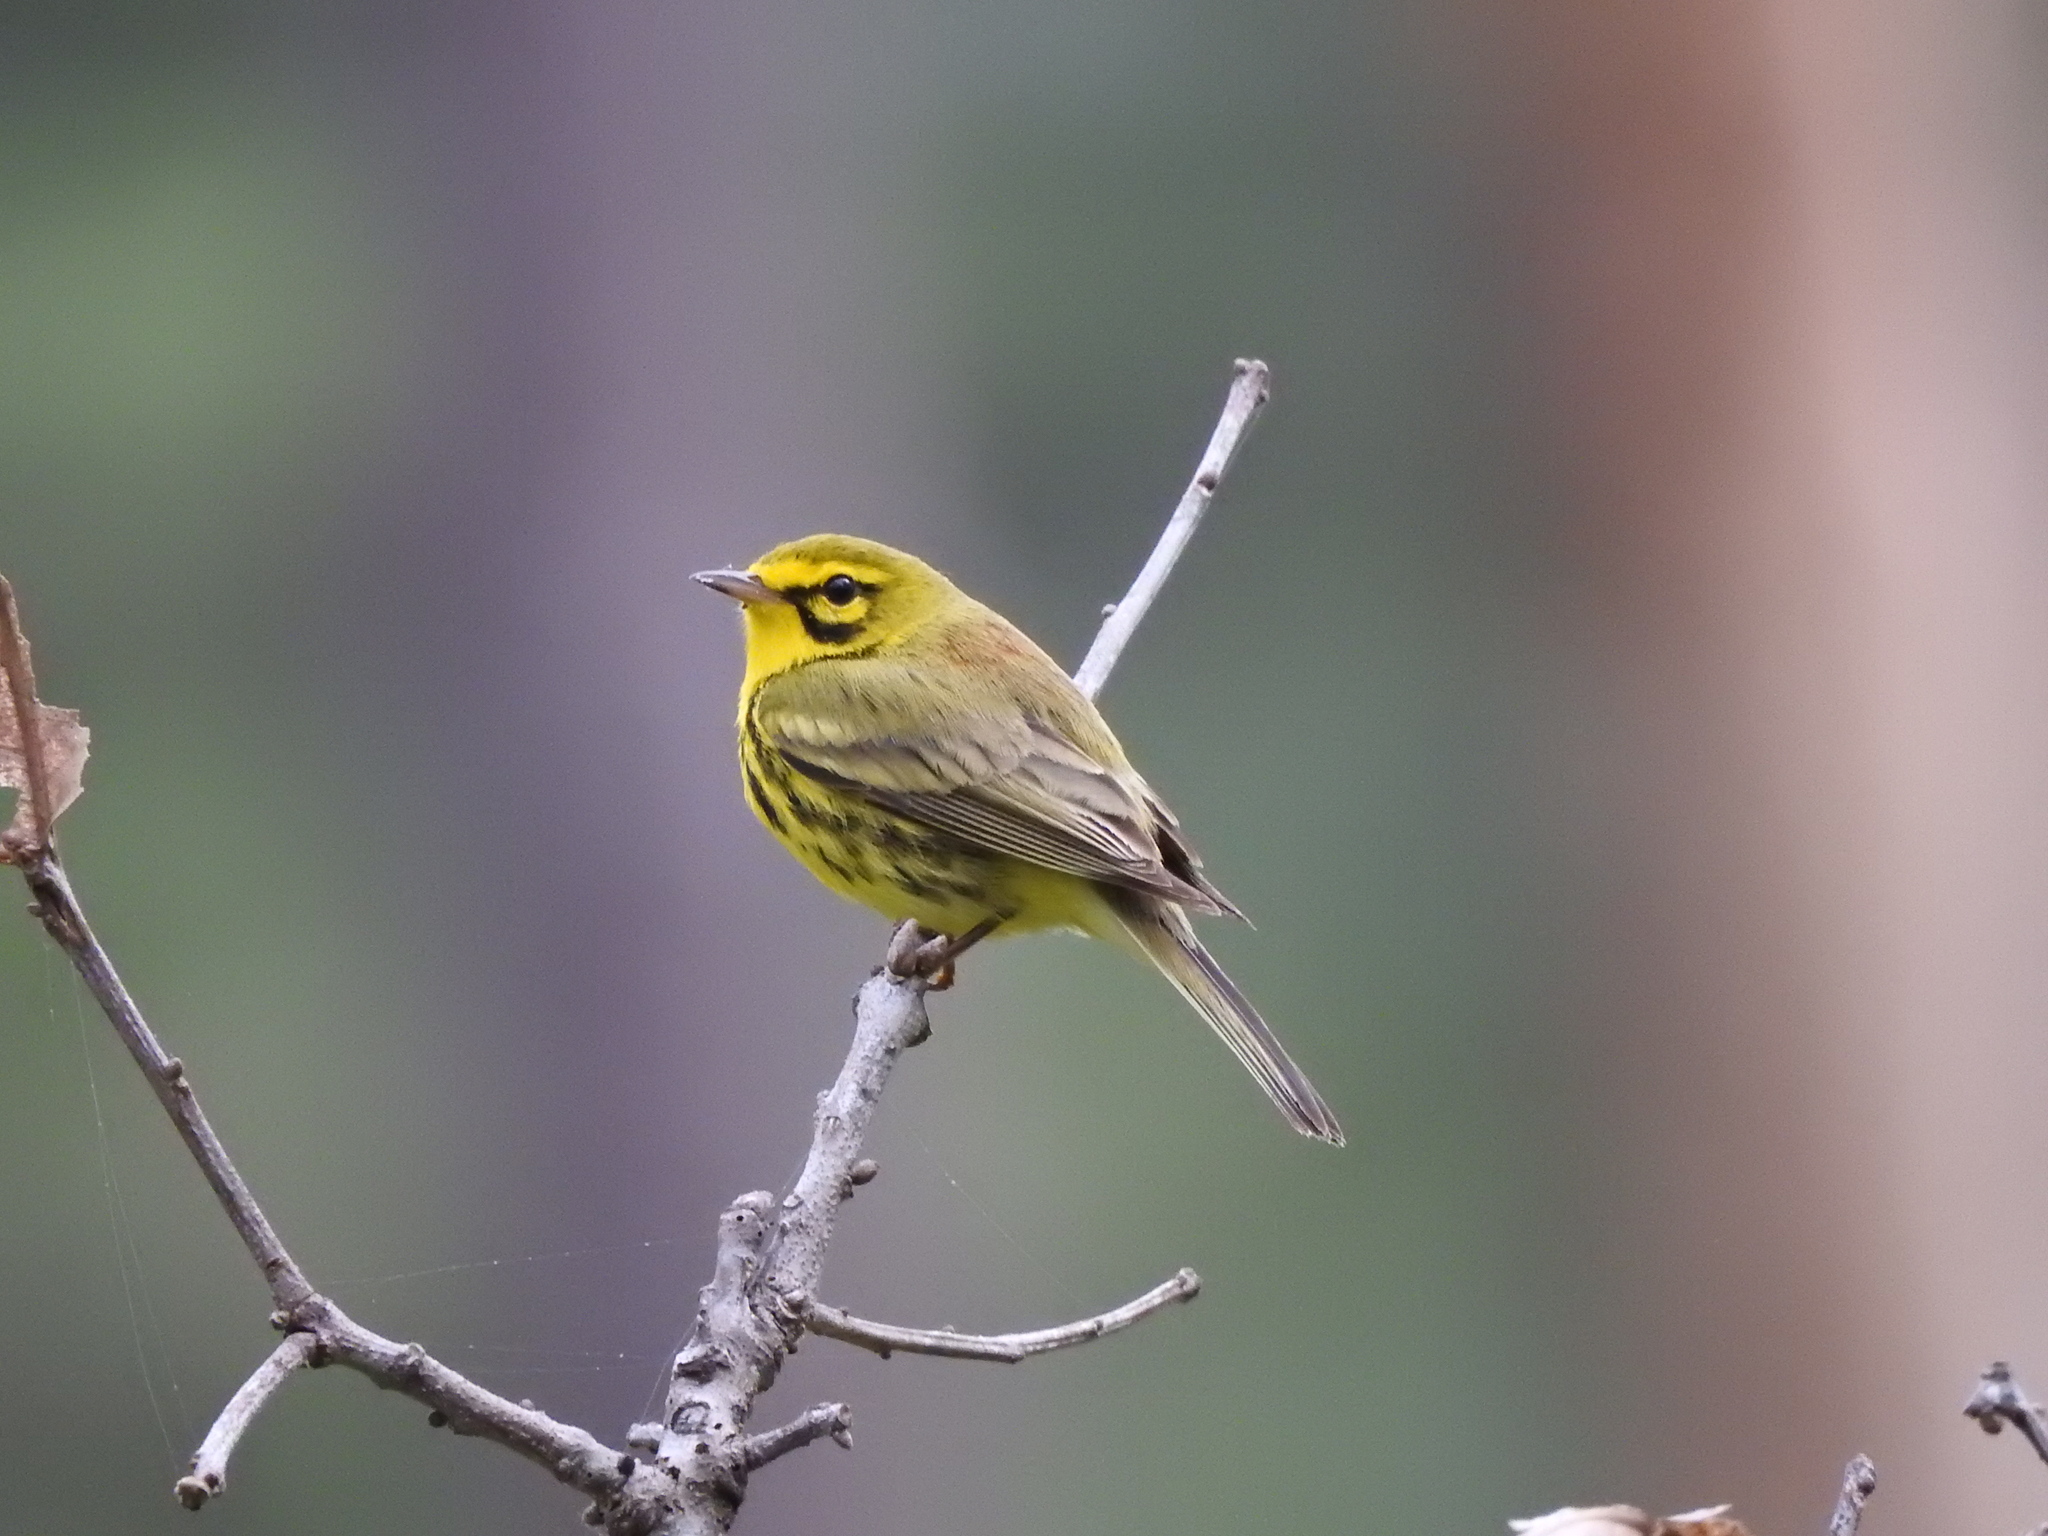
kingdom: Animalia
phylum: Chordata
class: Aves
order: Passeriformes
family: Parulidae
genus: Setophaga
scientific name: Setophaga discolor
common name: Prairie warbler
